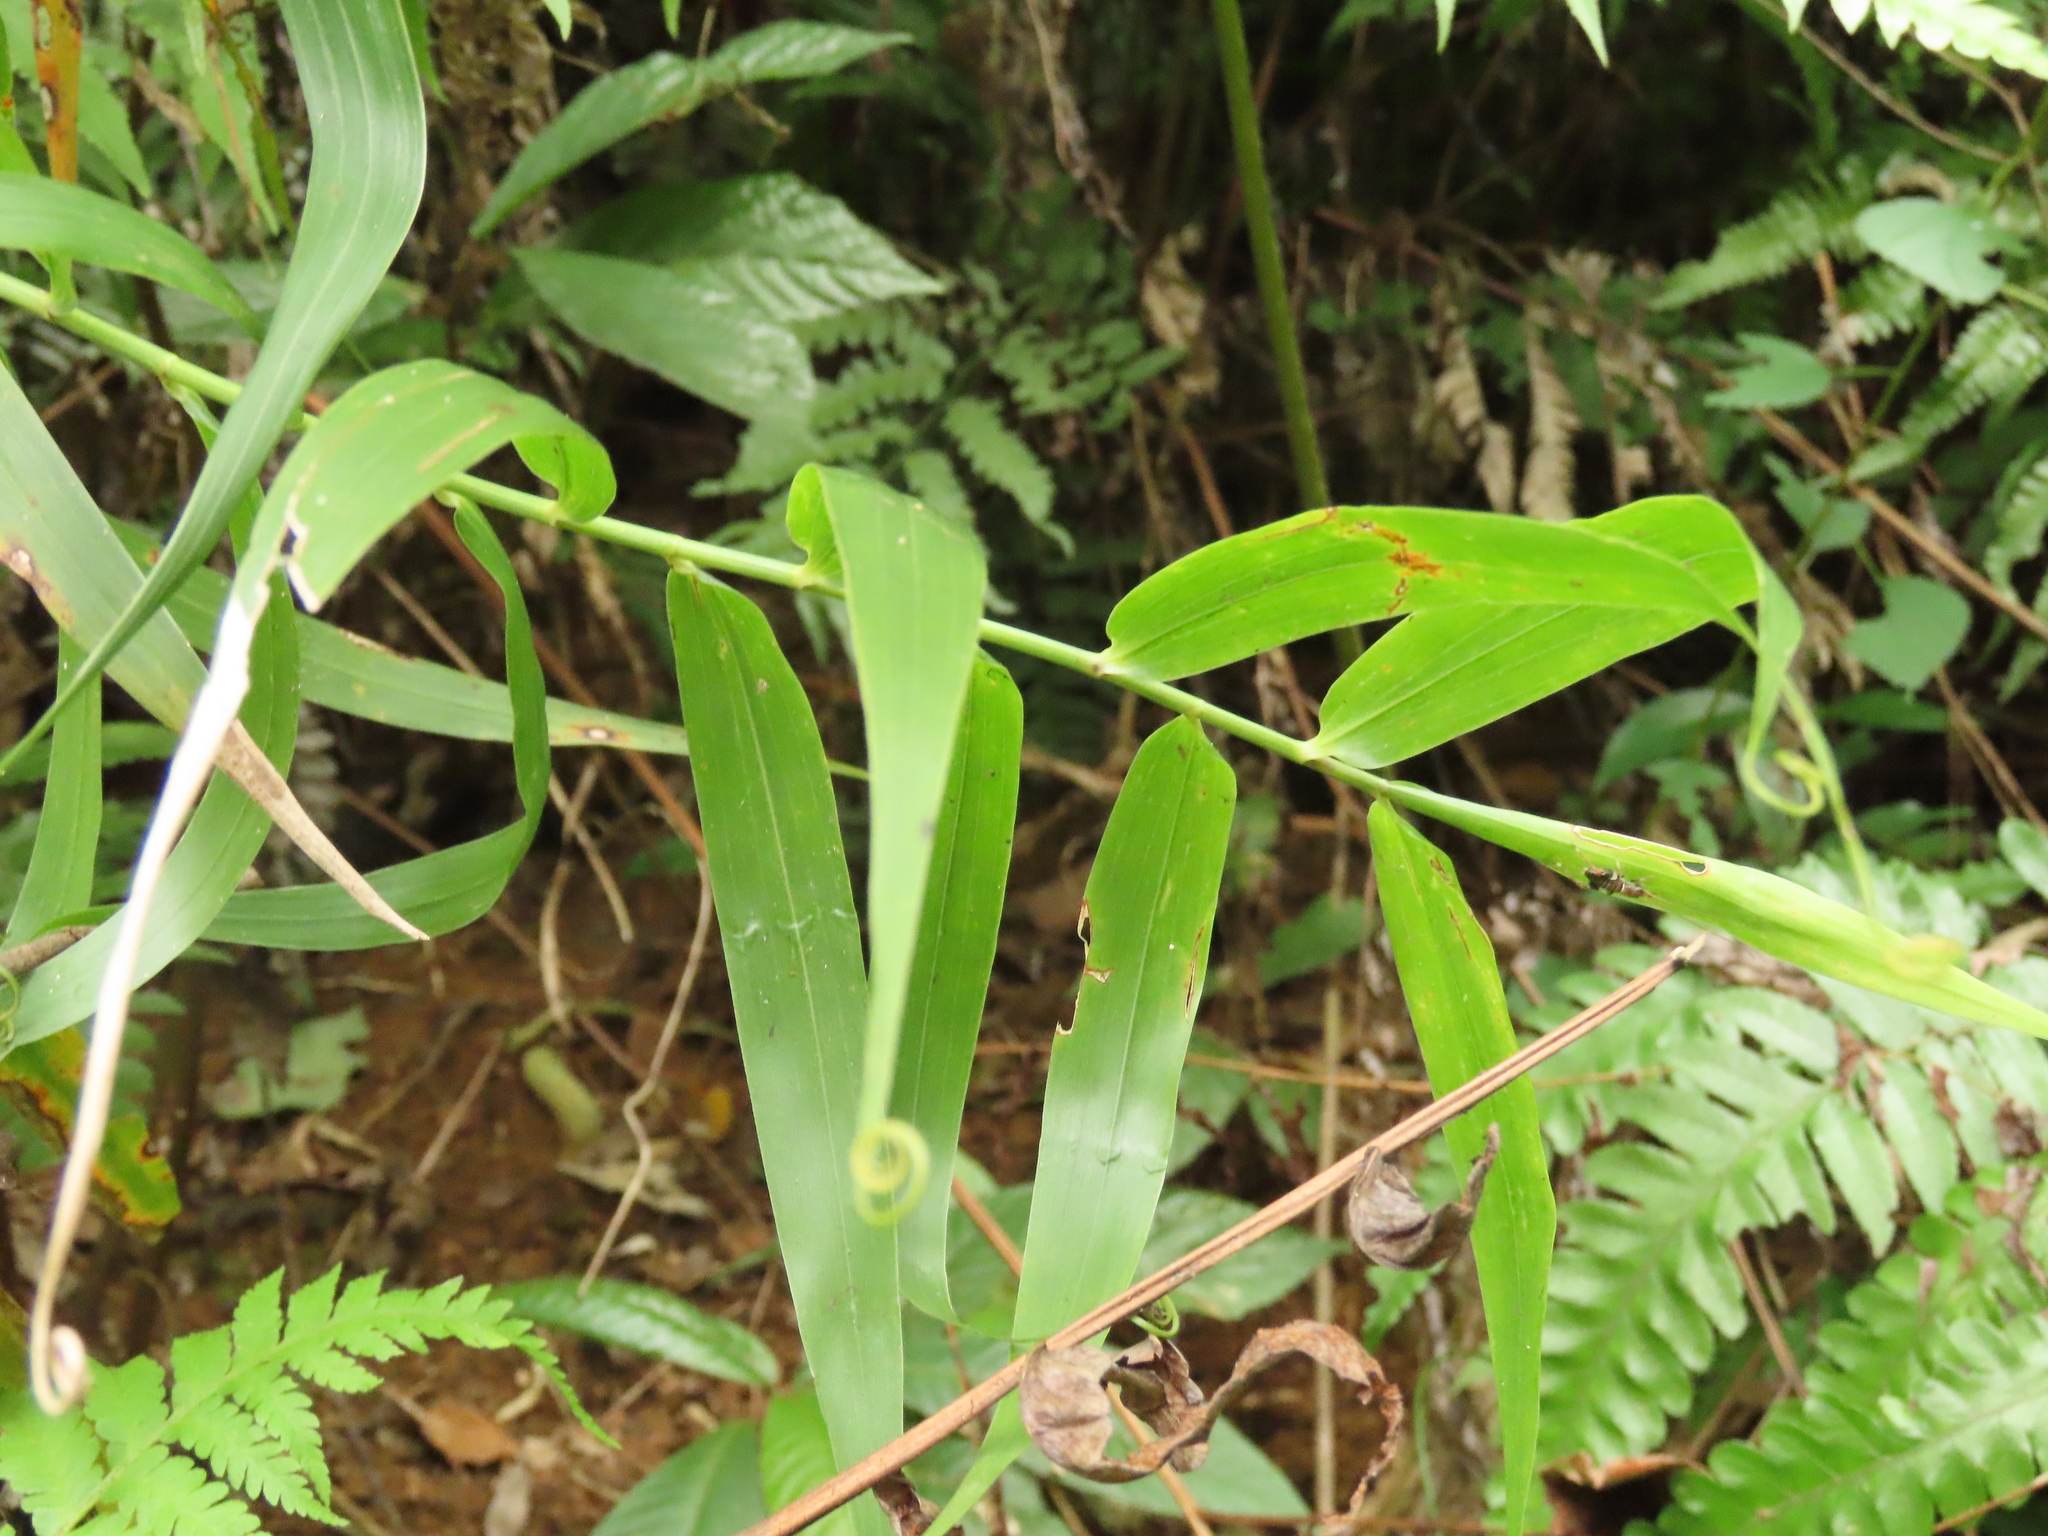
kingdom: Plantae
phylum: Tracheophyta
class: Liliopsida
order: Poales
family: Flagellariaceae
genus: Flagellaria
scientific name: Flagellaria indica
